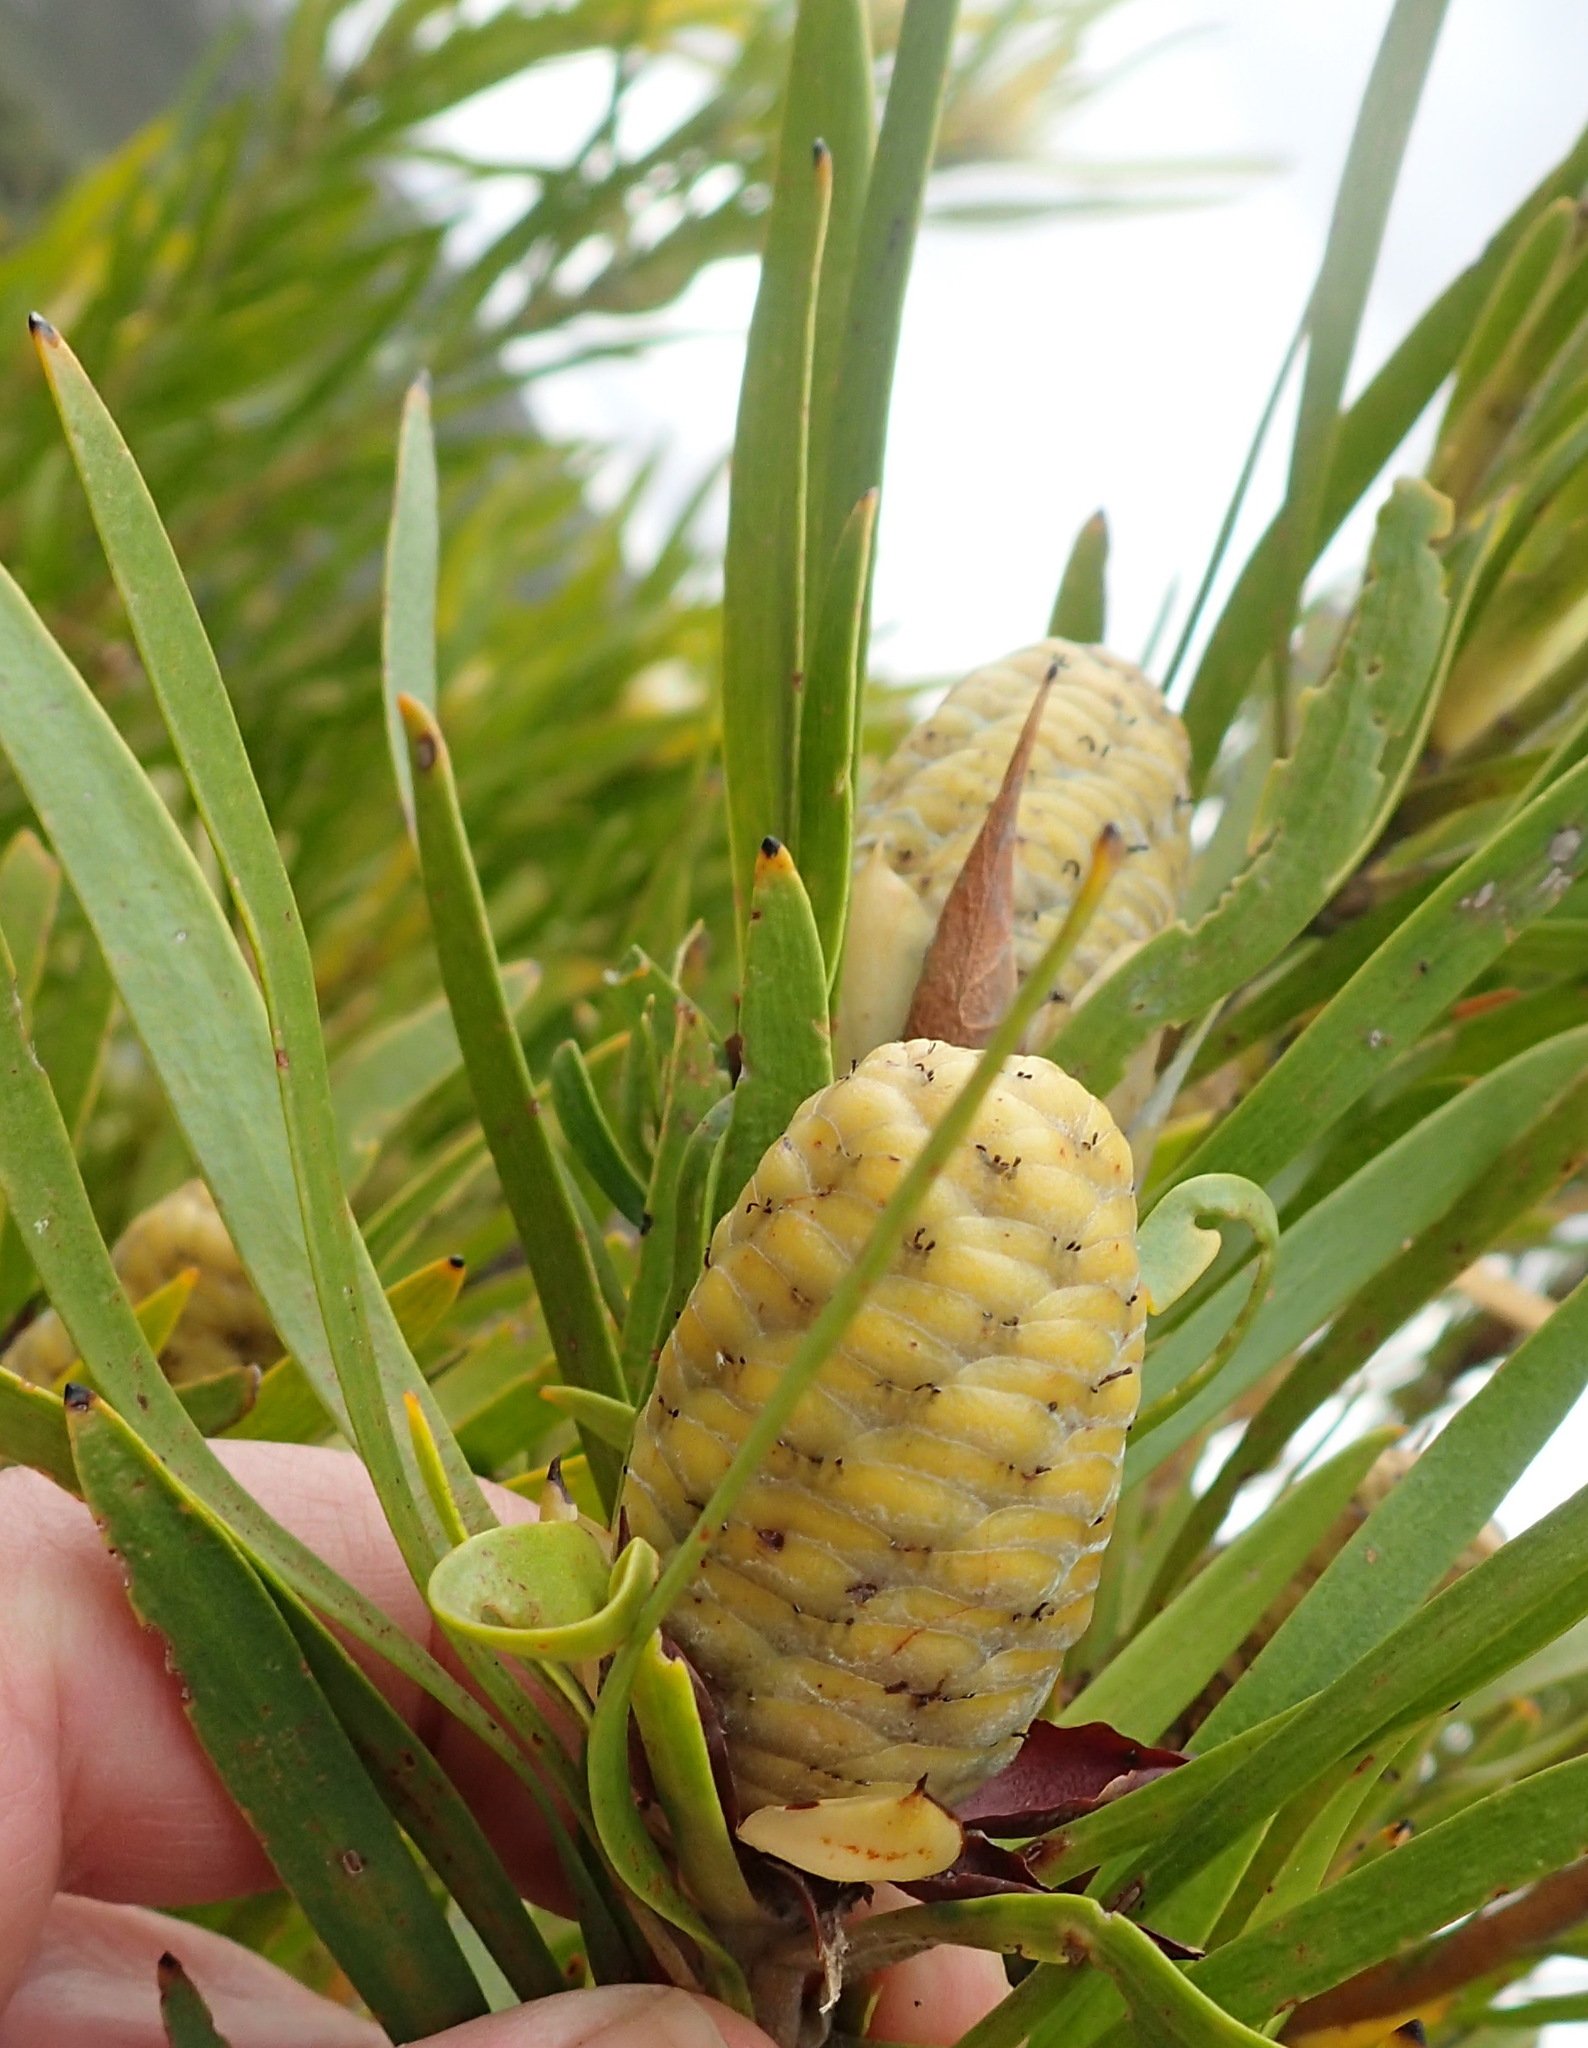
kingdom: Plantae
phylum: Tracheophyta
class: Magnoliopsida
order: Proteales
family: Proteaceae
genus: Leucadendron
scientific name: Leucadendron eucalyptifolium
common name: Gum-leaved conebush
